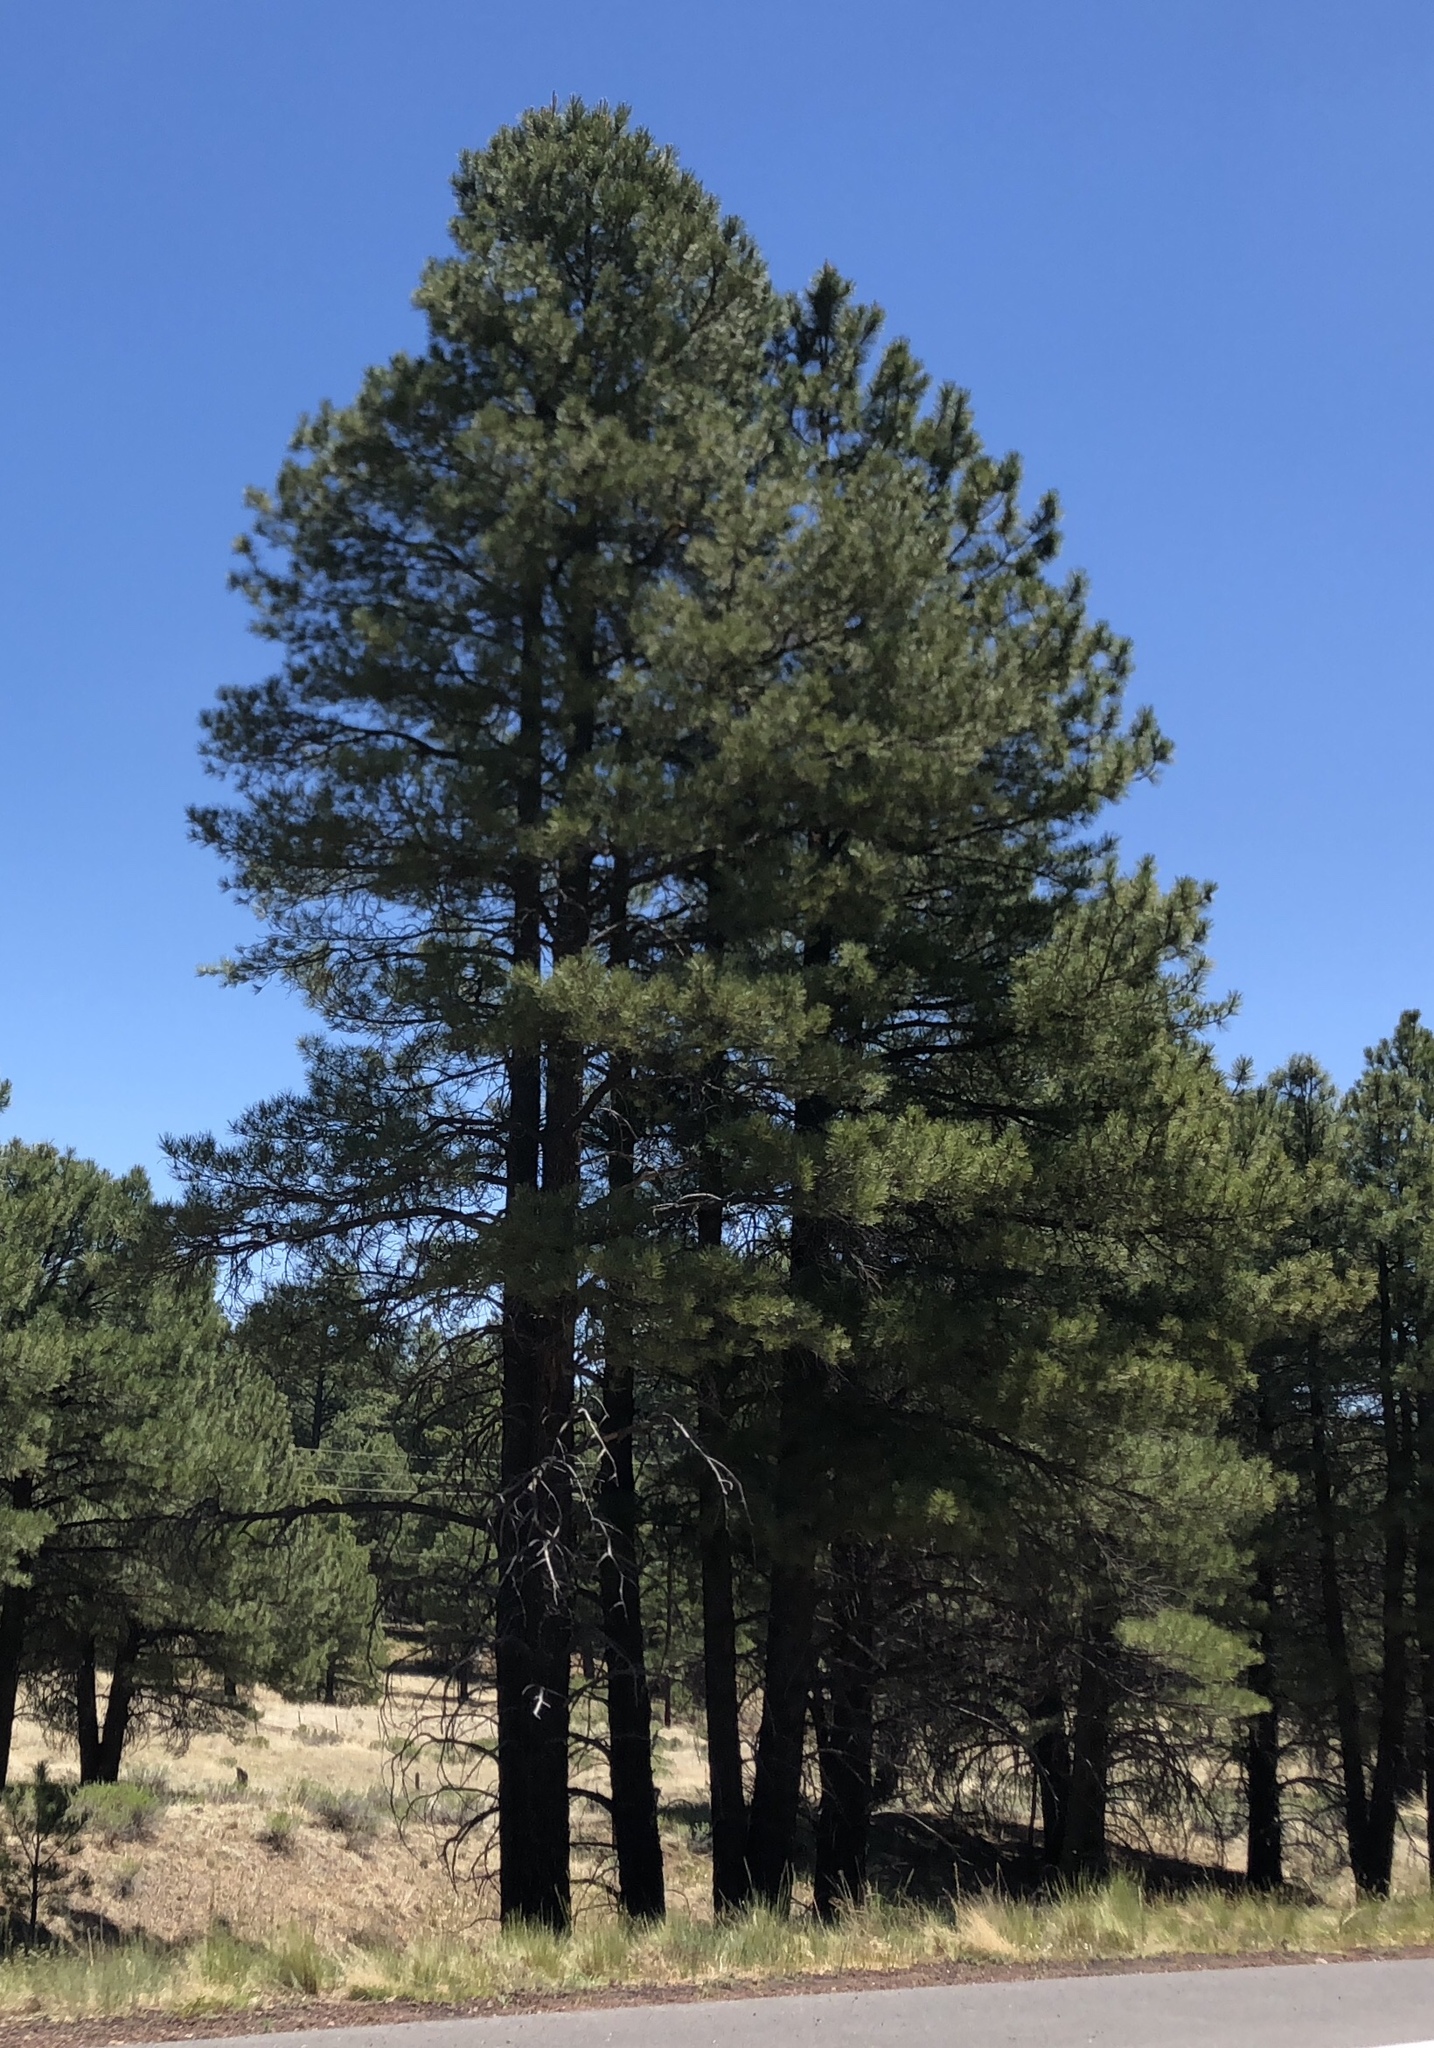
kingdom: Plantae
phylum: Tracheophyta
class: Pinopsida
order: Pinales
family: Pinaceae
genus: Pinus
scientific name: Pinus ponderosa
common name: Western yellow-pine
